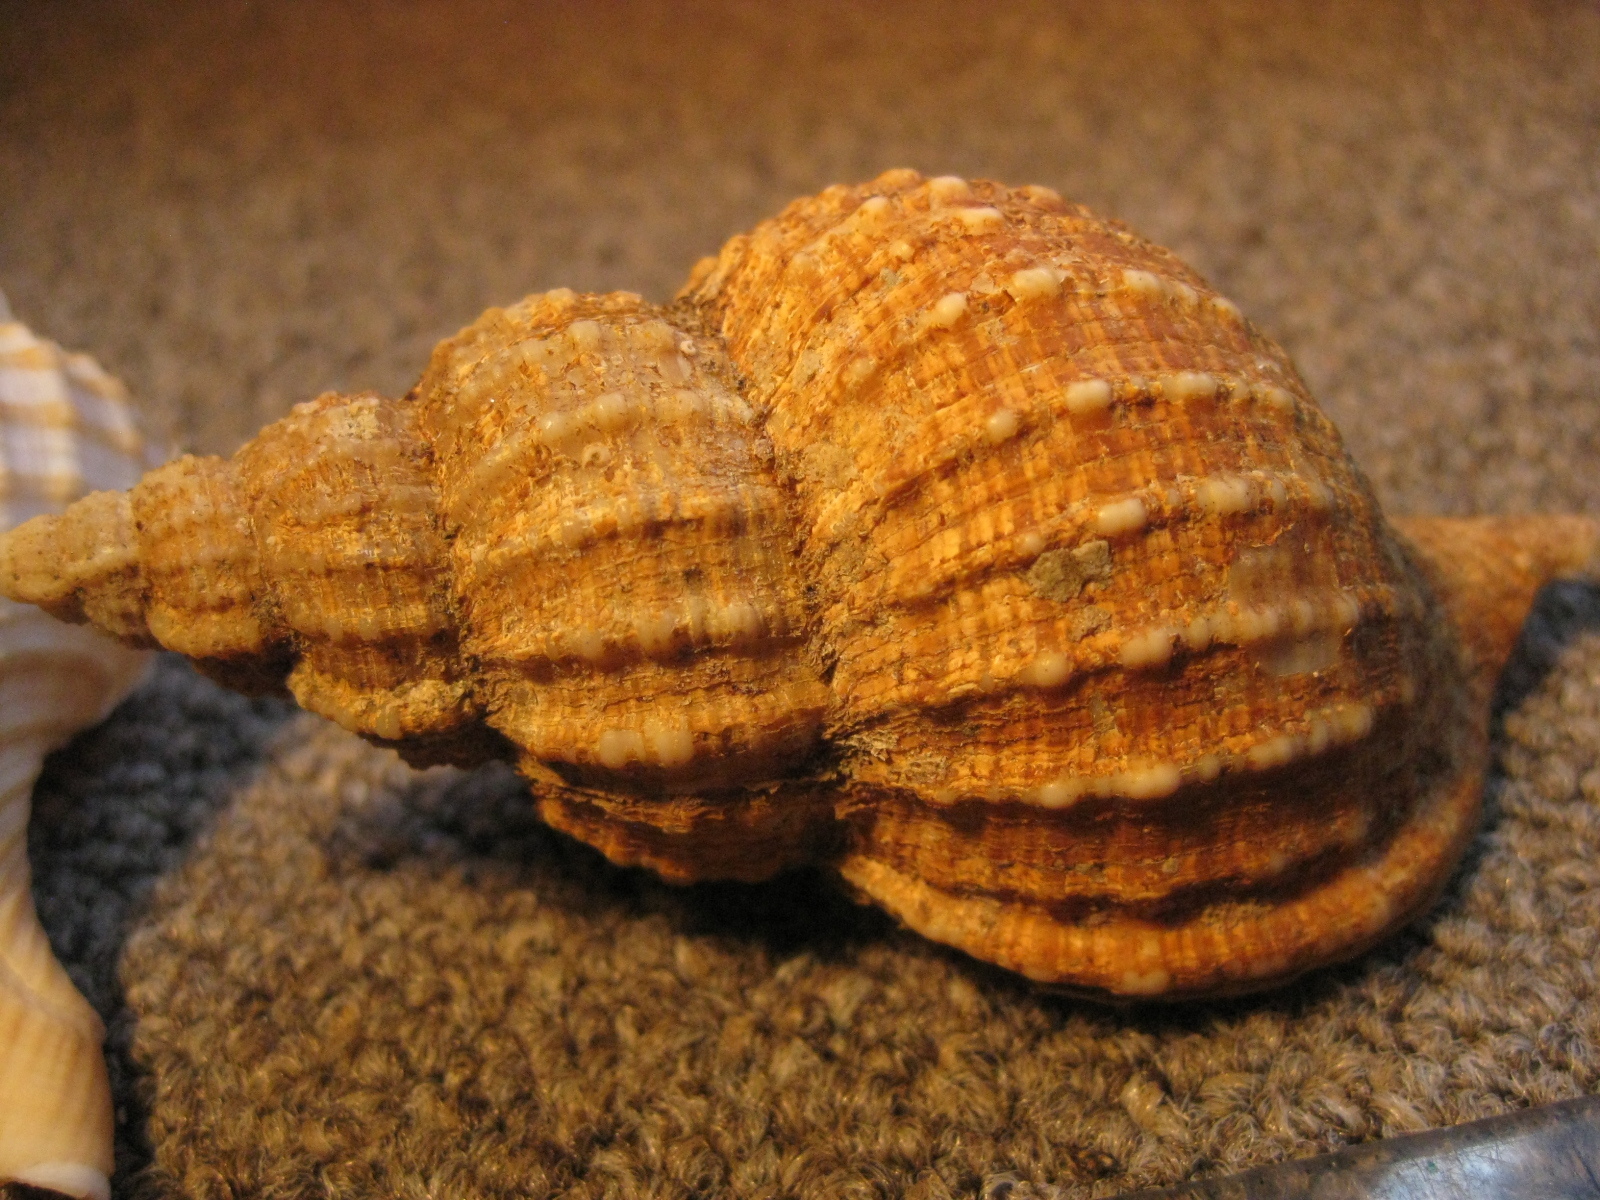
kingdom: Animalia
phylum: Mollusca
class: Gastropoda
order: Littorinimorpha
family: Cymatiidae
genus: Fusitriton
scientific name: Fusitriton laudandus
